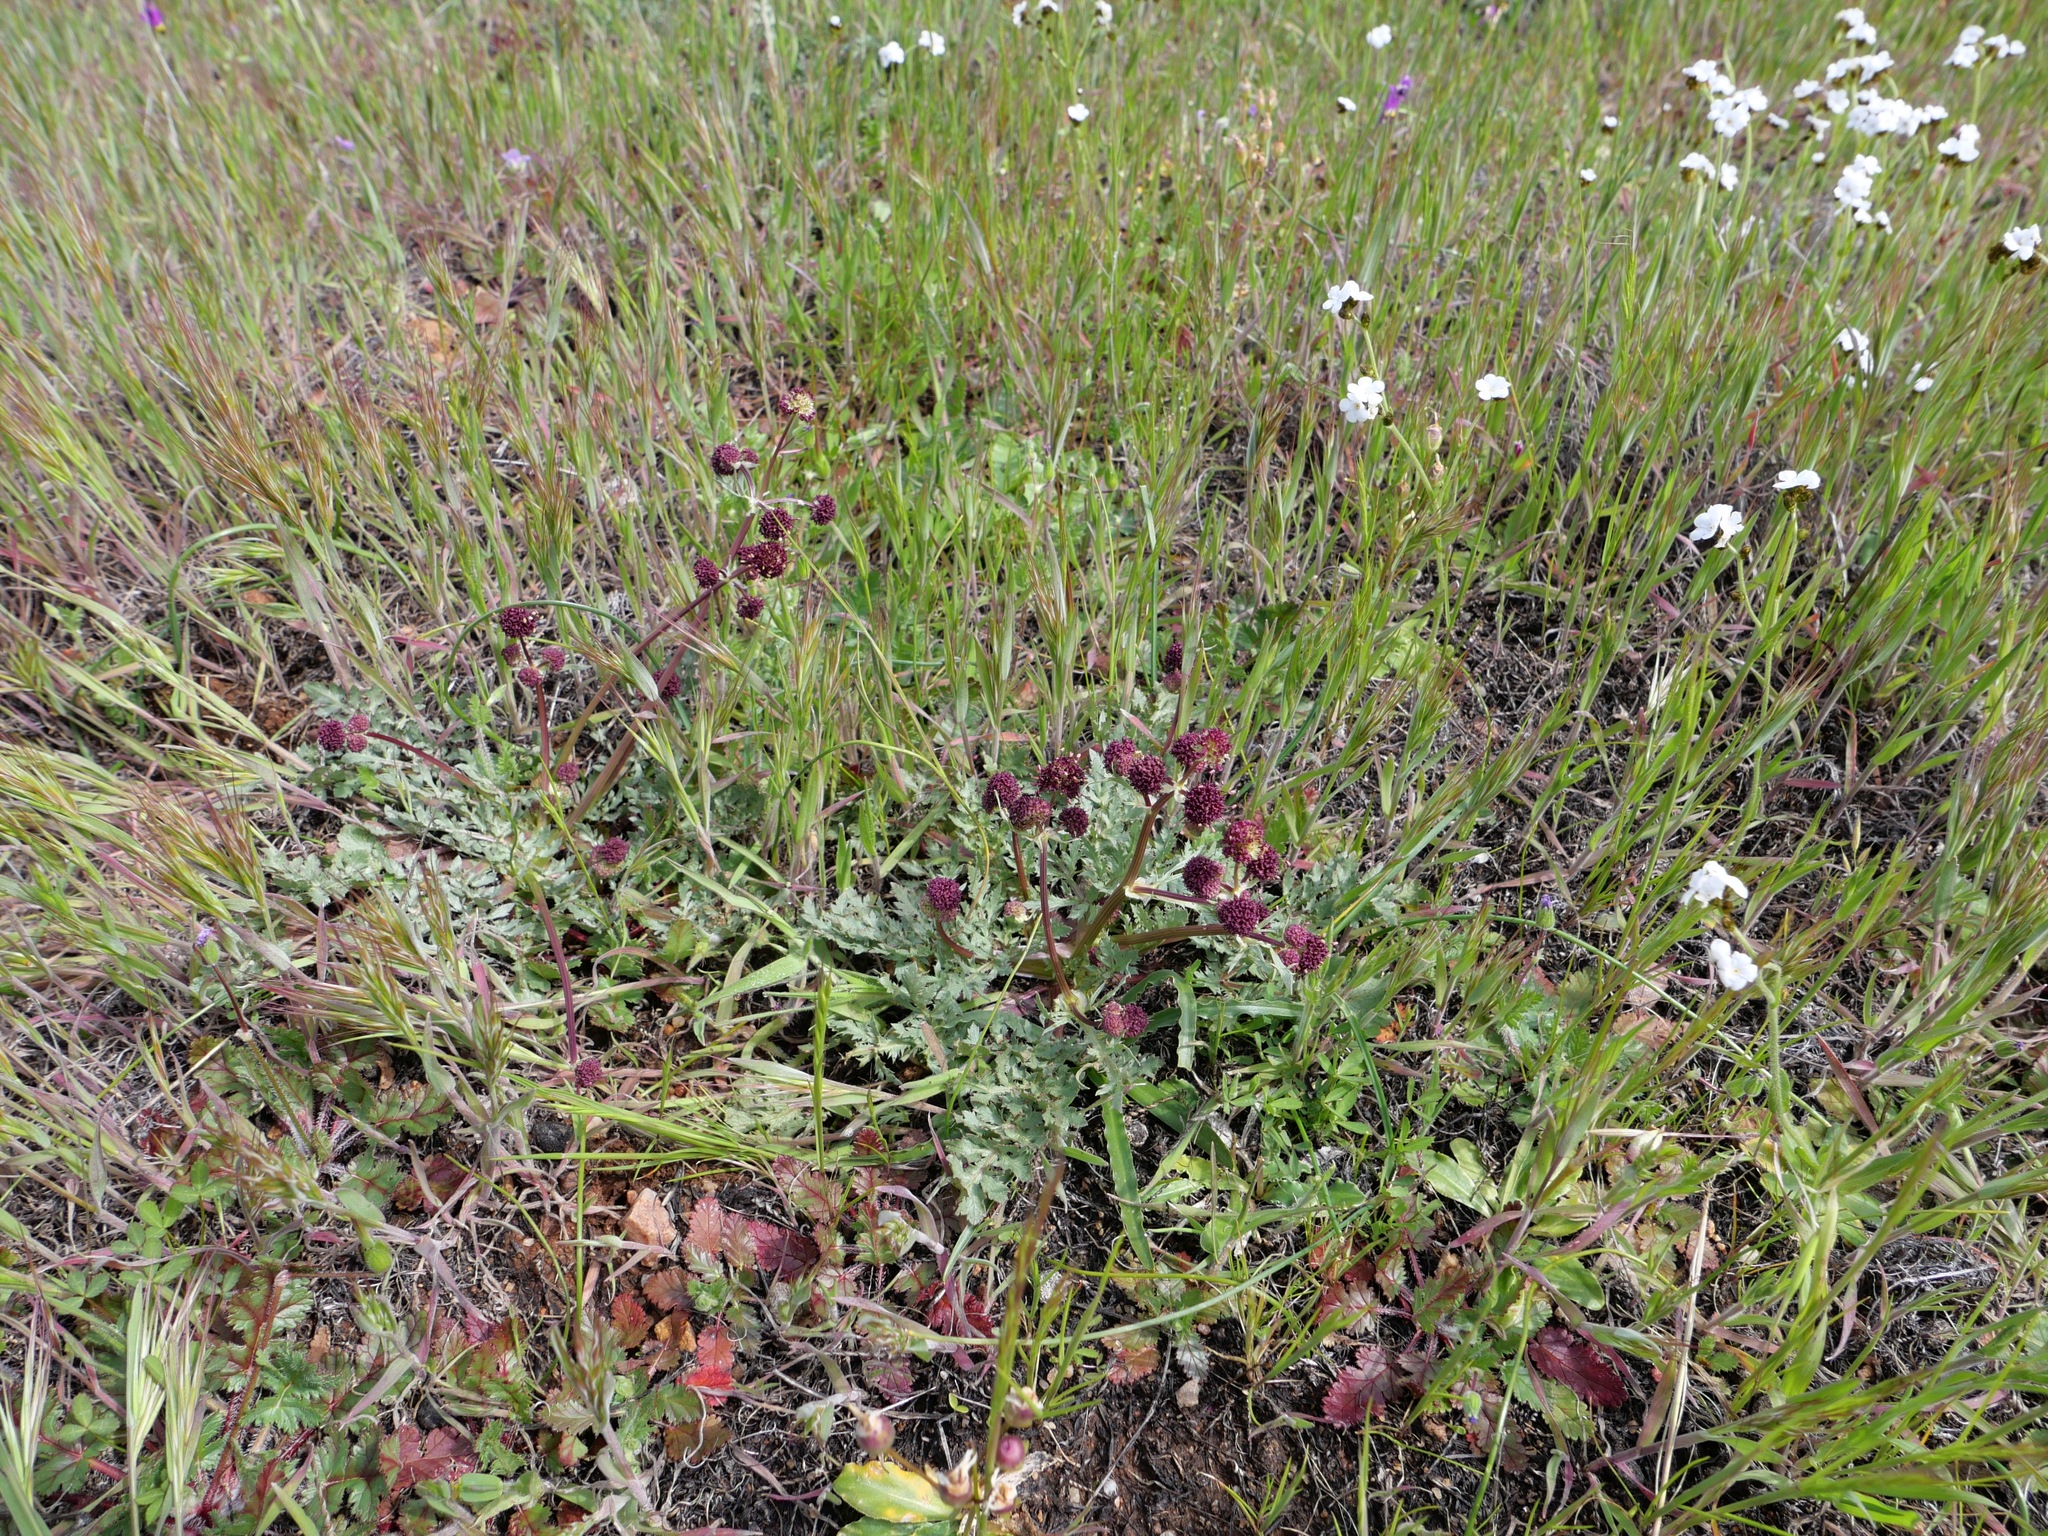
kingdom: Plantae
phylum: Tracheophyta
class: Magnoliopsida
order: Apiales
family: Apiaceae
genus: Sanicula
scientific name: Sanicula bipinnatifida
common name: Shoe-buttons
